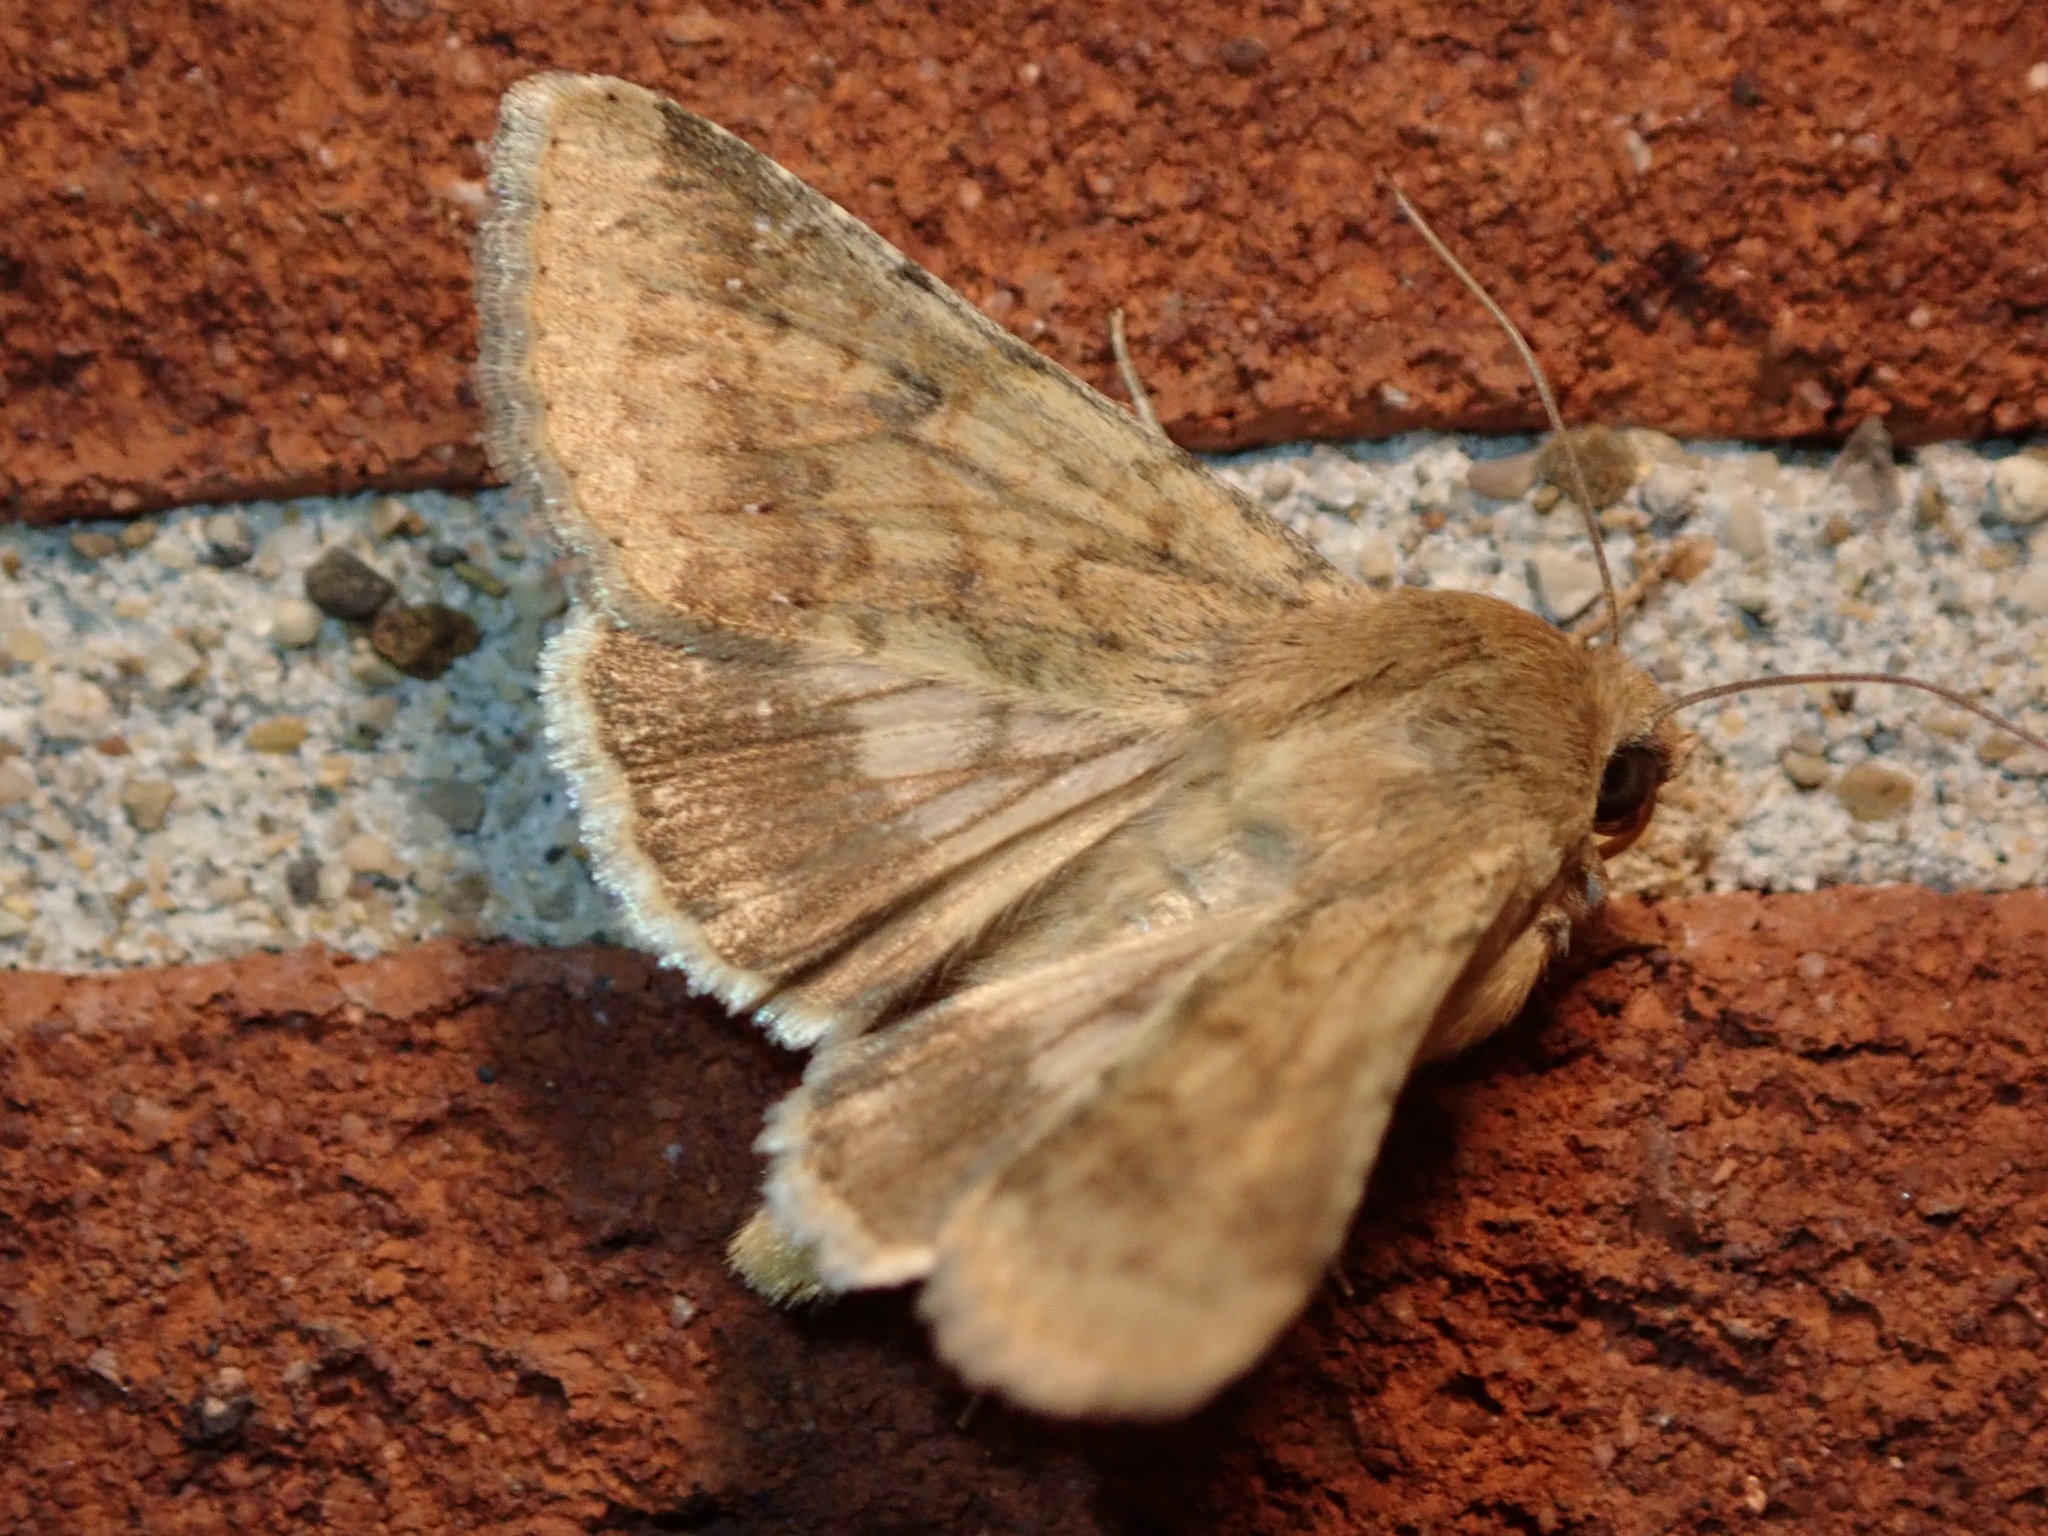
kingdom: Animalia
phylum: Arthropoda
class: Insecta
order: Lepidoptera
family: Noctuidae
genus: Helicoverpa
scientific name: Helicoverpa zea
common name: Bollworm
